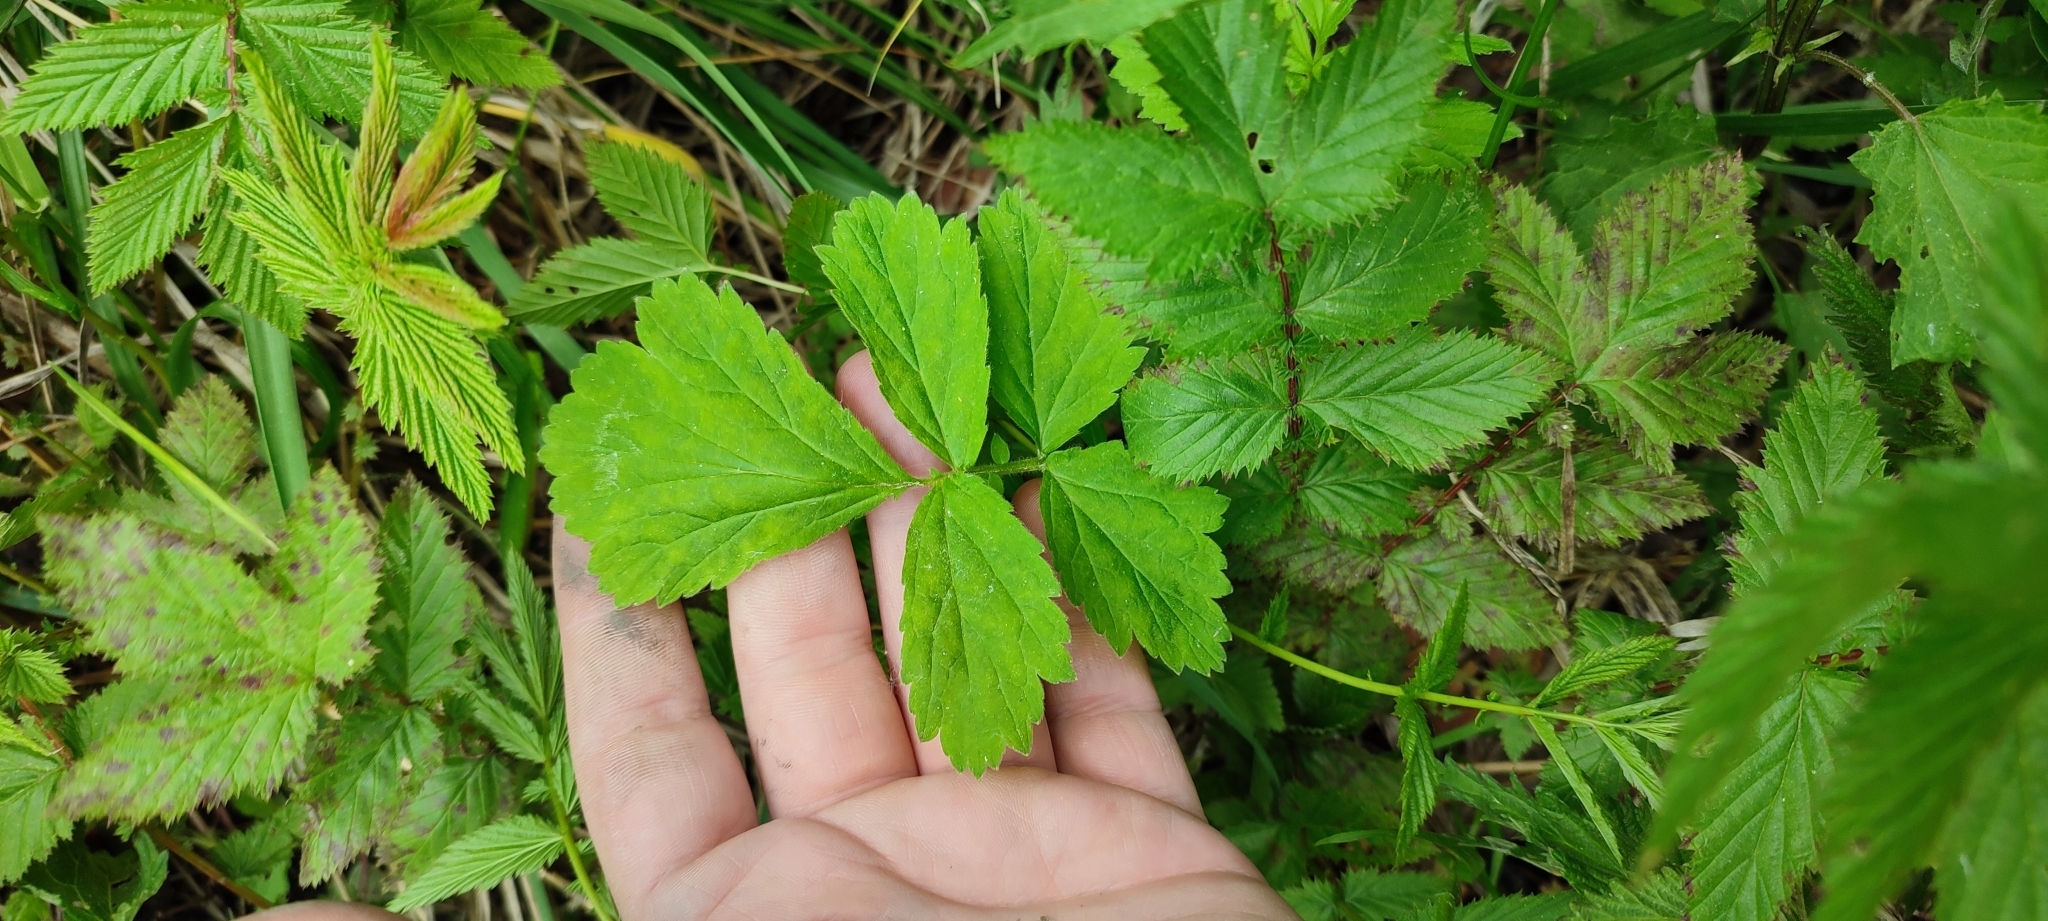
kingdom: Plantae
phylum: Tracheophyta
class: Magnoliopsida
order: Rosales
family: Rosaceae
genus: Geum
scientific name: Geum rivale
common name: Water avens
